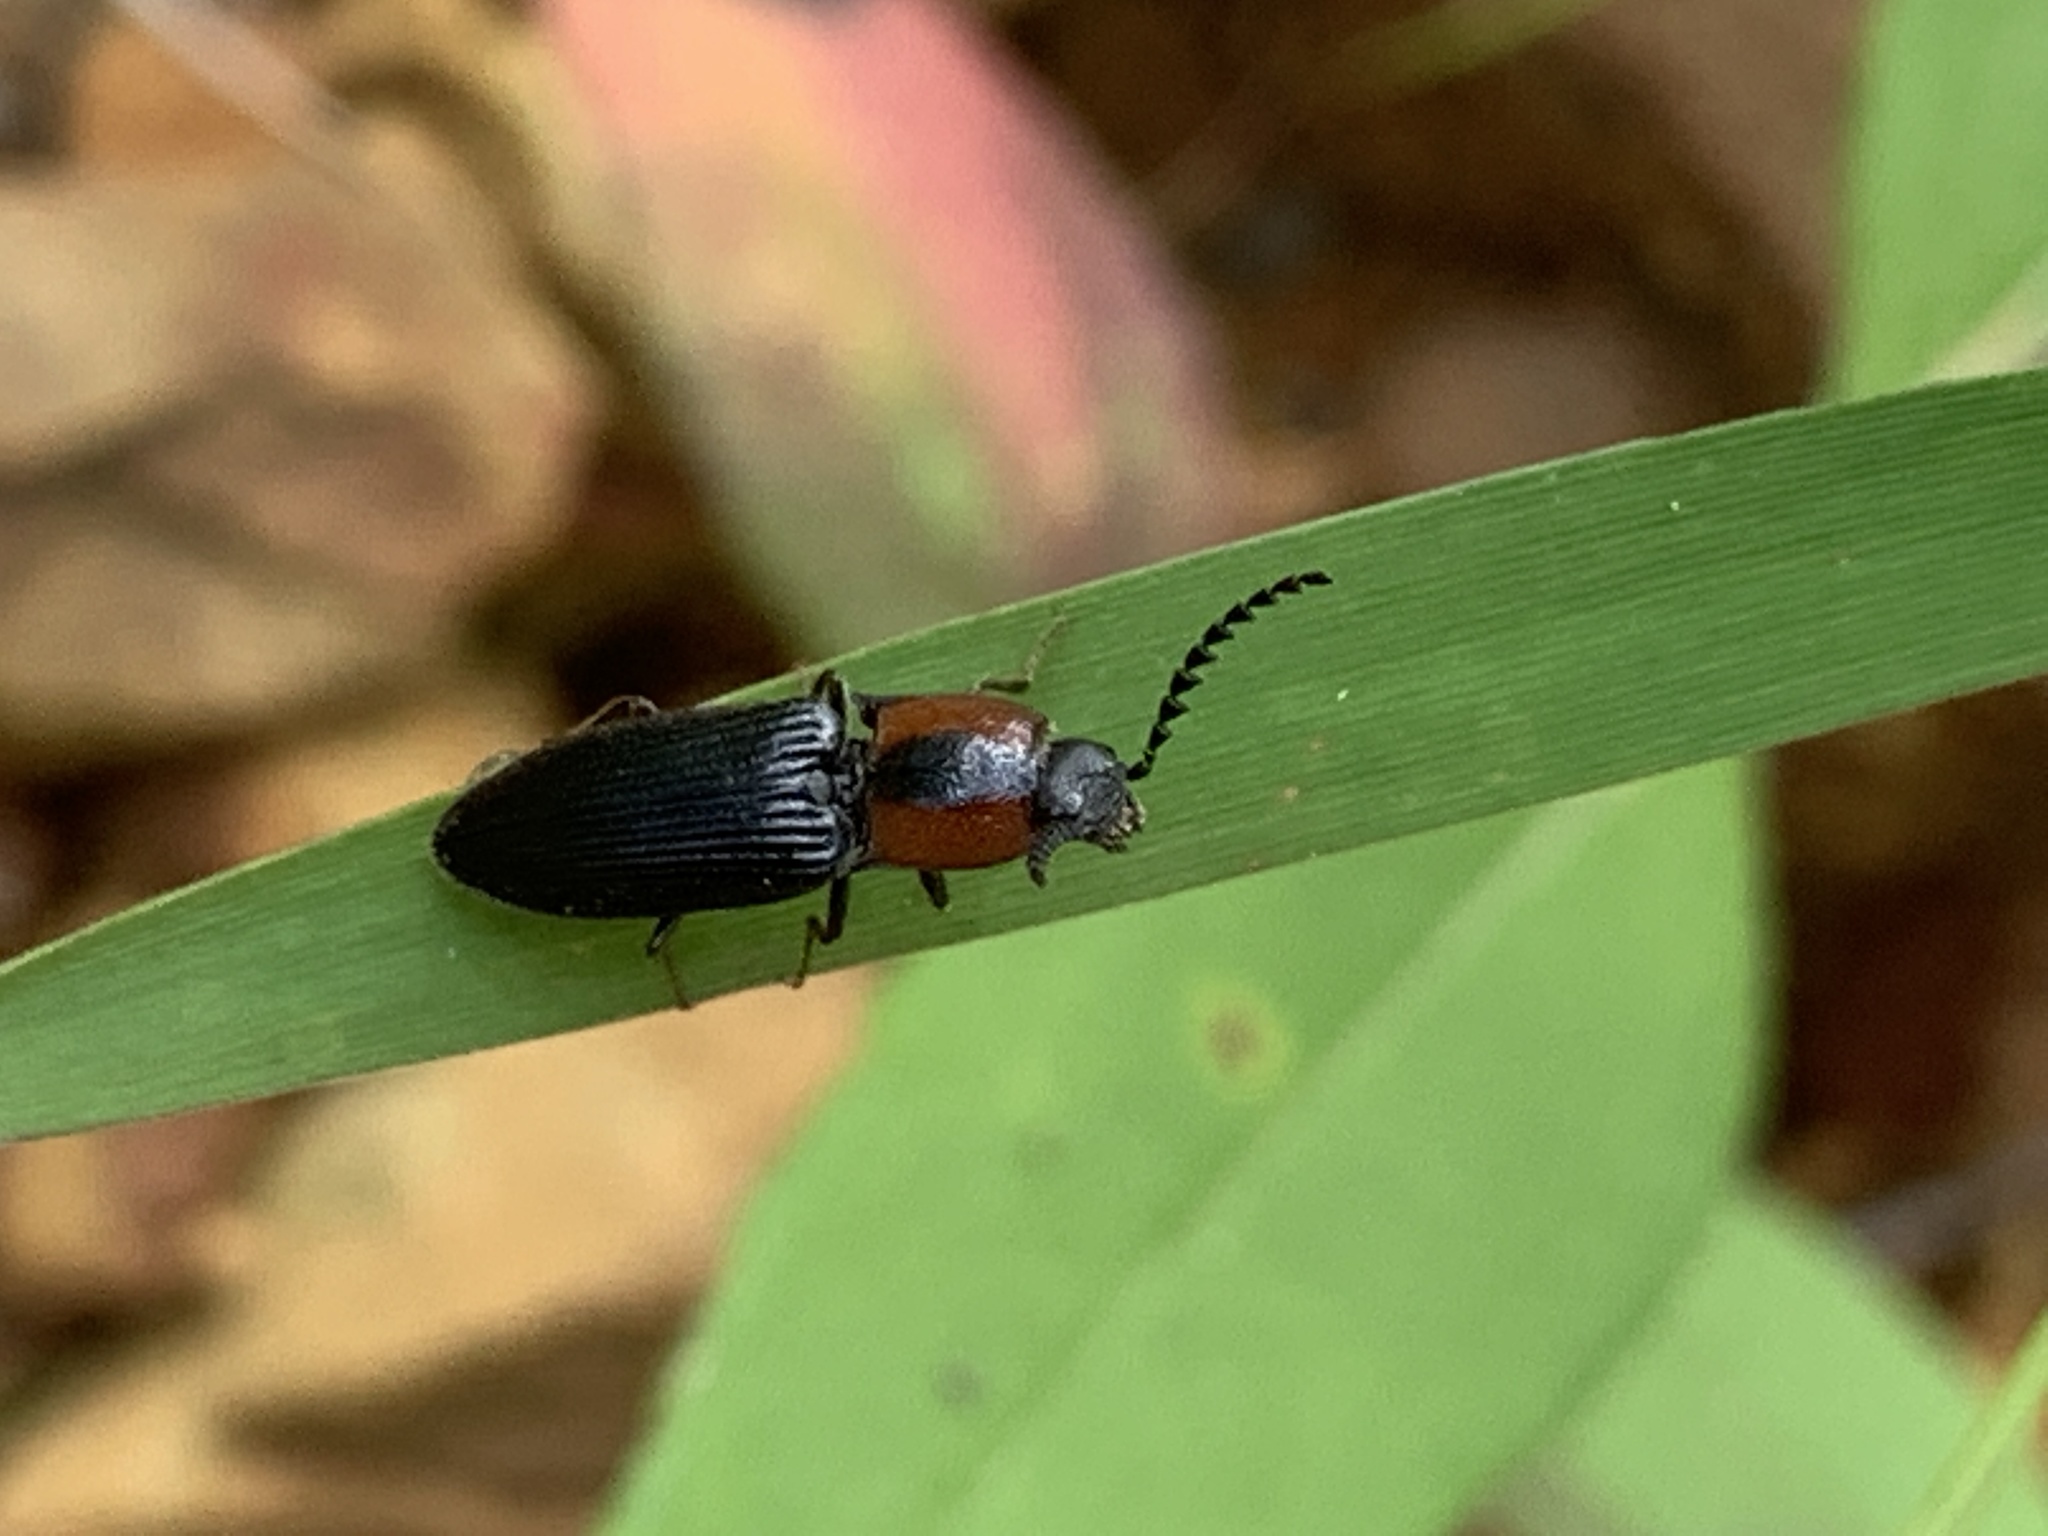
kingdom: Animalia
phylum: Arthropoda
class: Insecta
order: Coleoptera
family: Curculionidae
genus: Brownia
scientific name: Brownia
